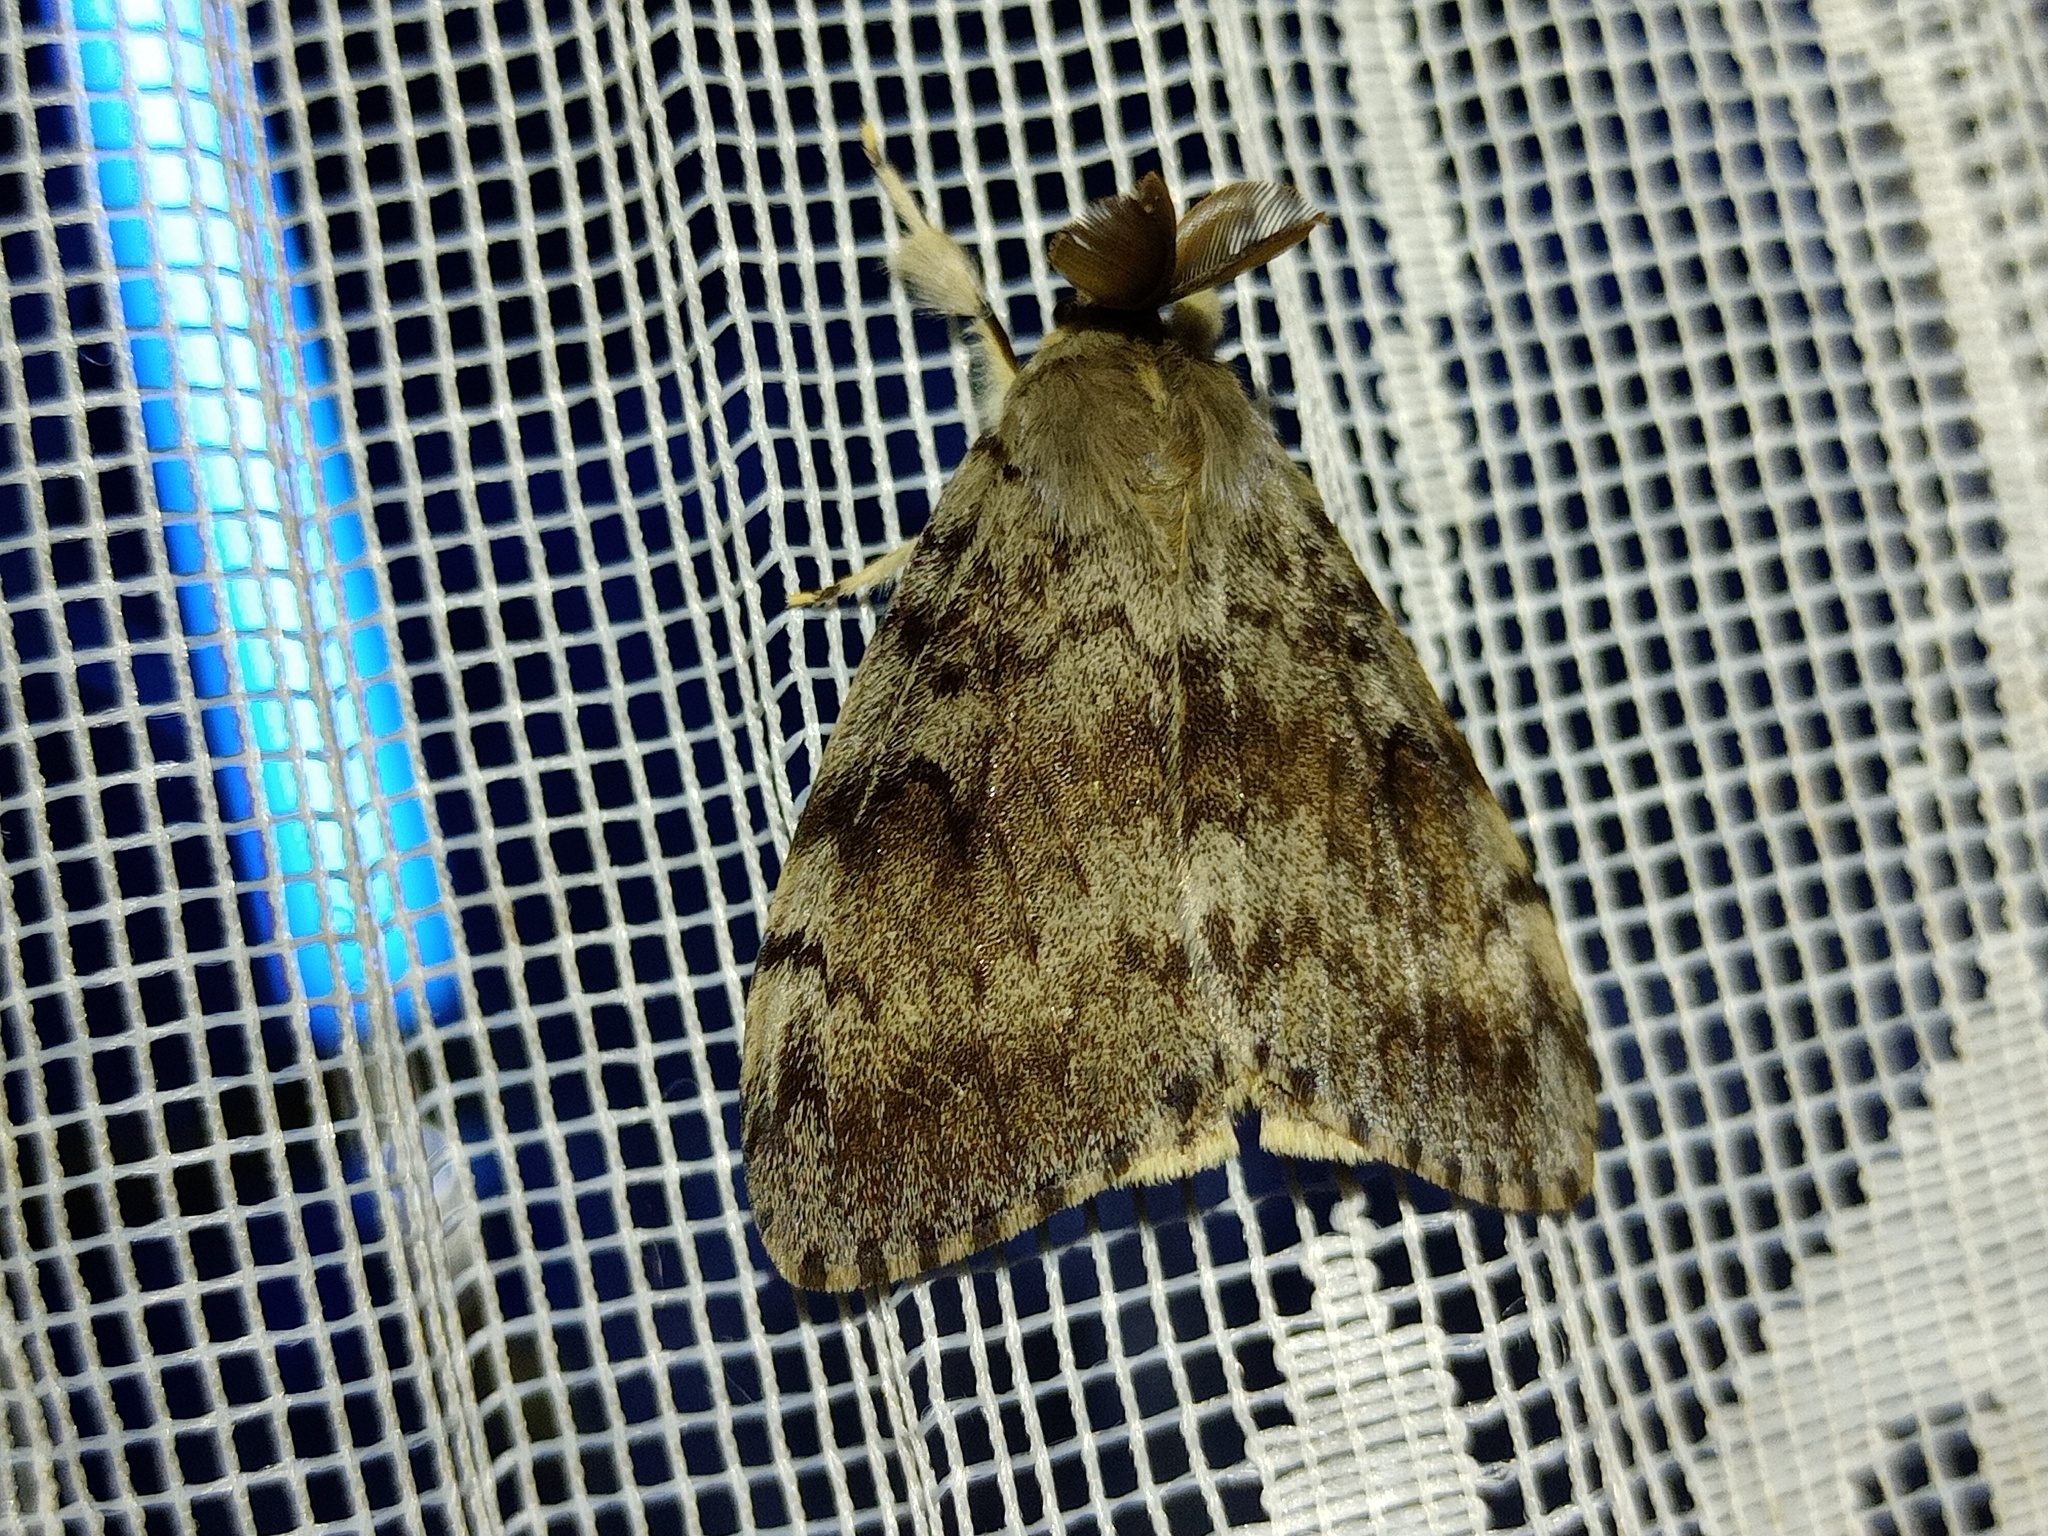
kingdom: Animalia
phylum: Arthropoda
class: Insecta
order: Lepidoptera
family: Erebidae
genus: Lymantria
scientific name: Lymantria dispar
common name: Gypsy moth
